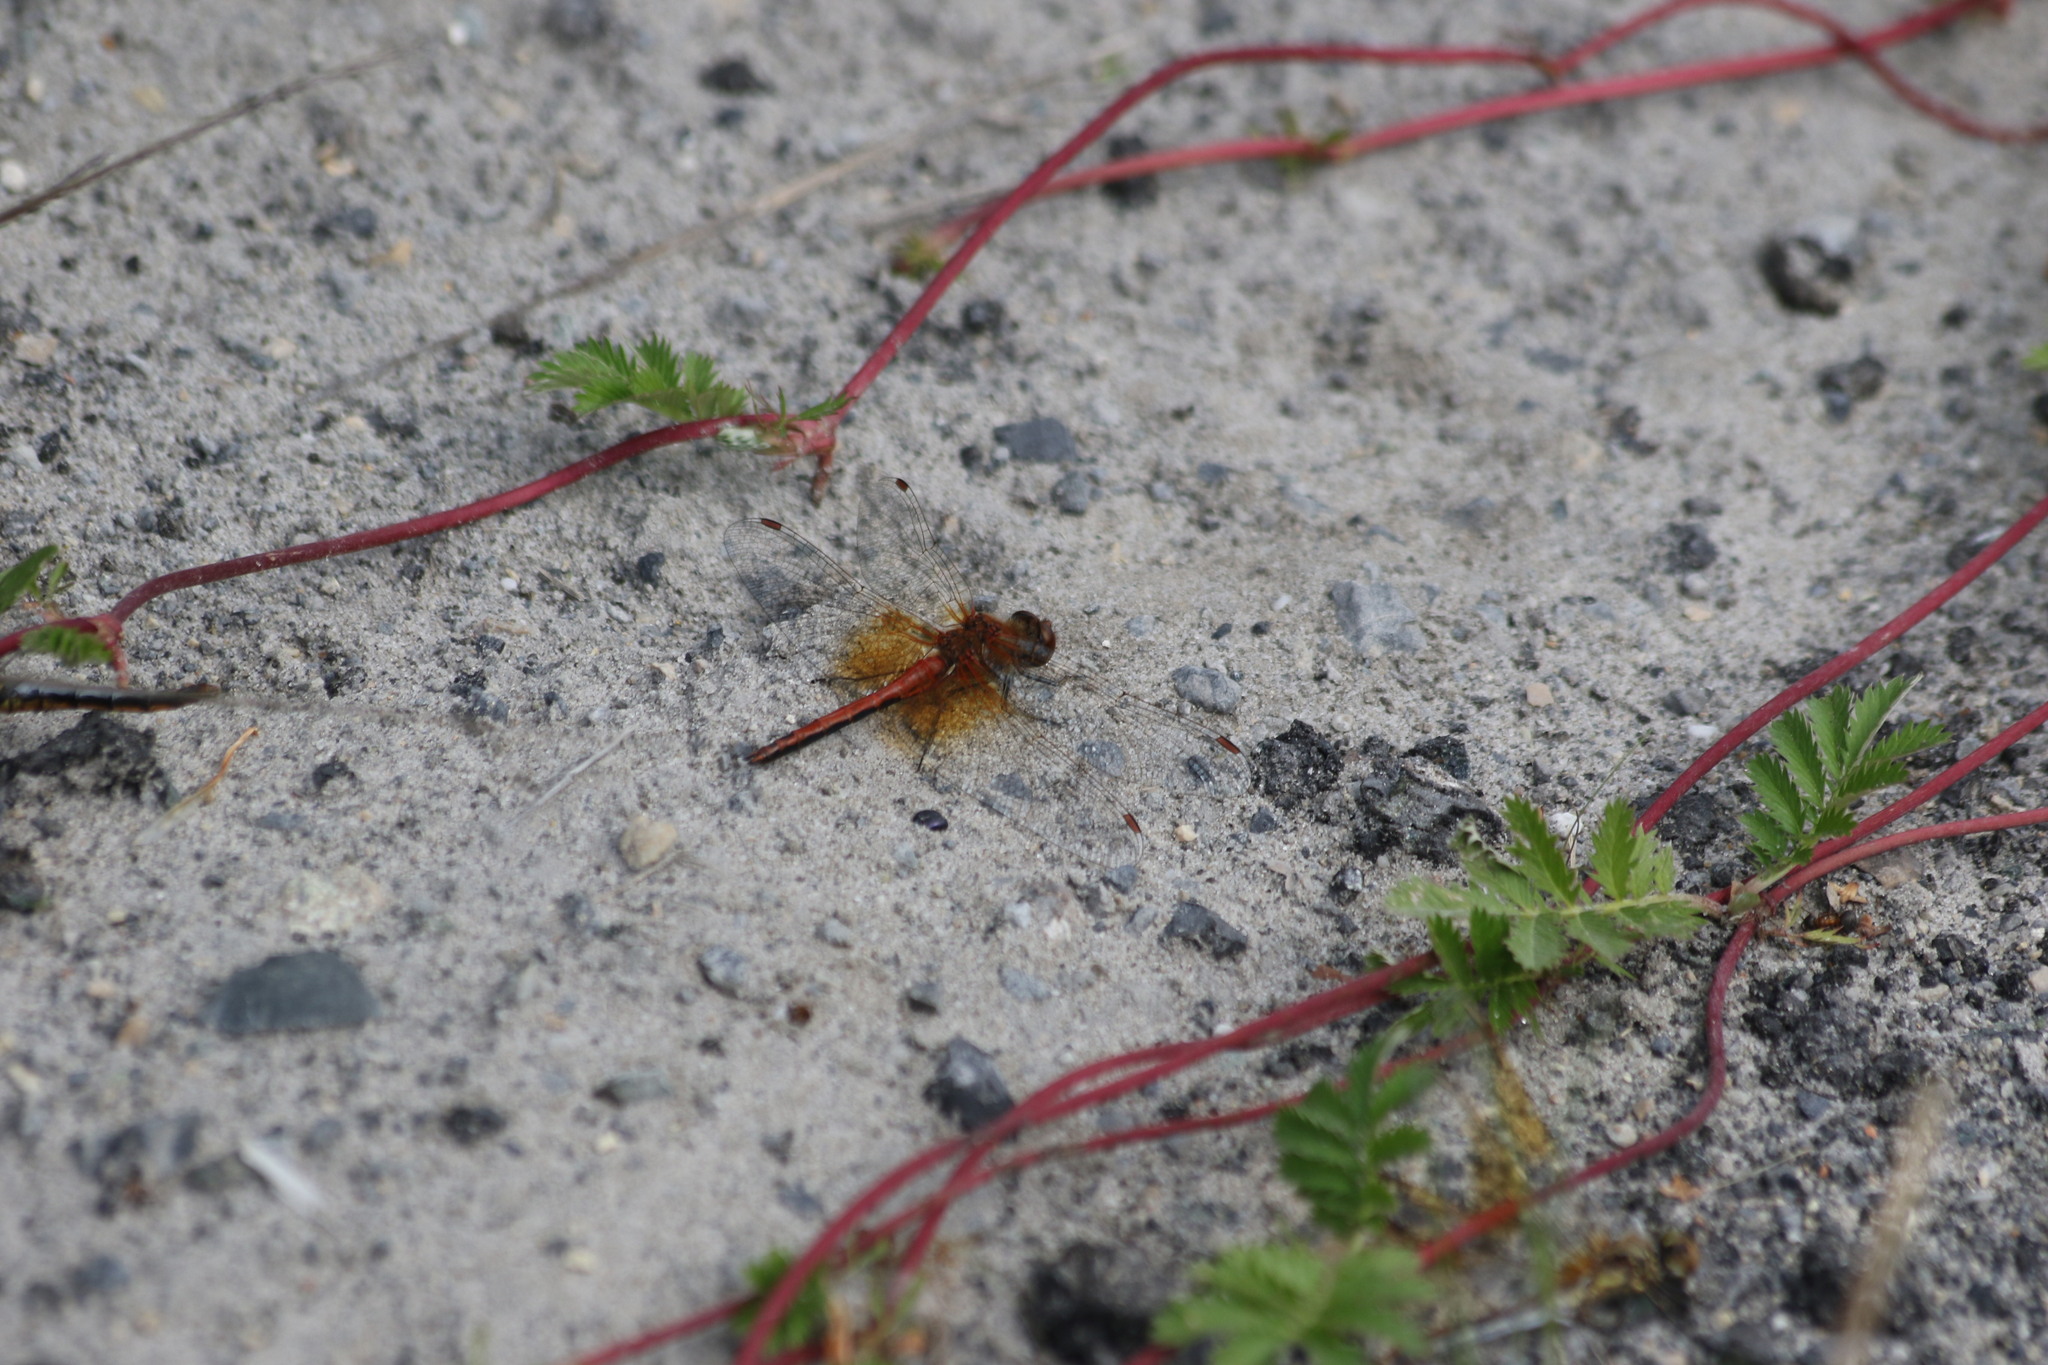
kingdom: Animalia
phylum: Arthropoda
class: Insecta
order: Odonata
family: Libellulidae
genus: Sympetrum
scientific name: Sympetrum flaveolum
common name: Yellow-winged darter
